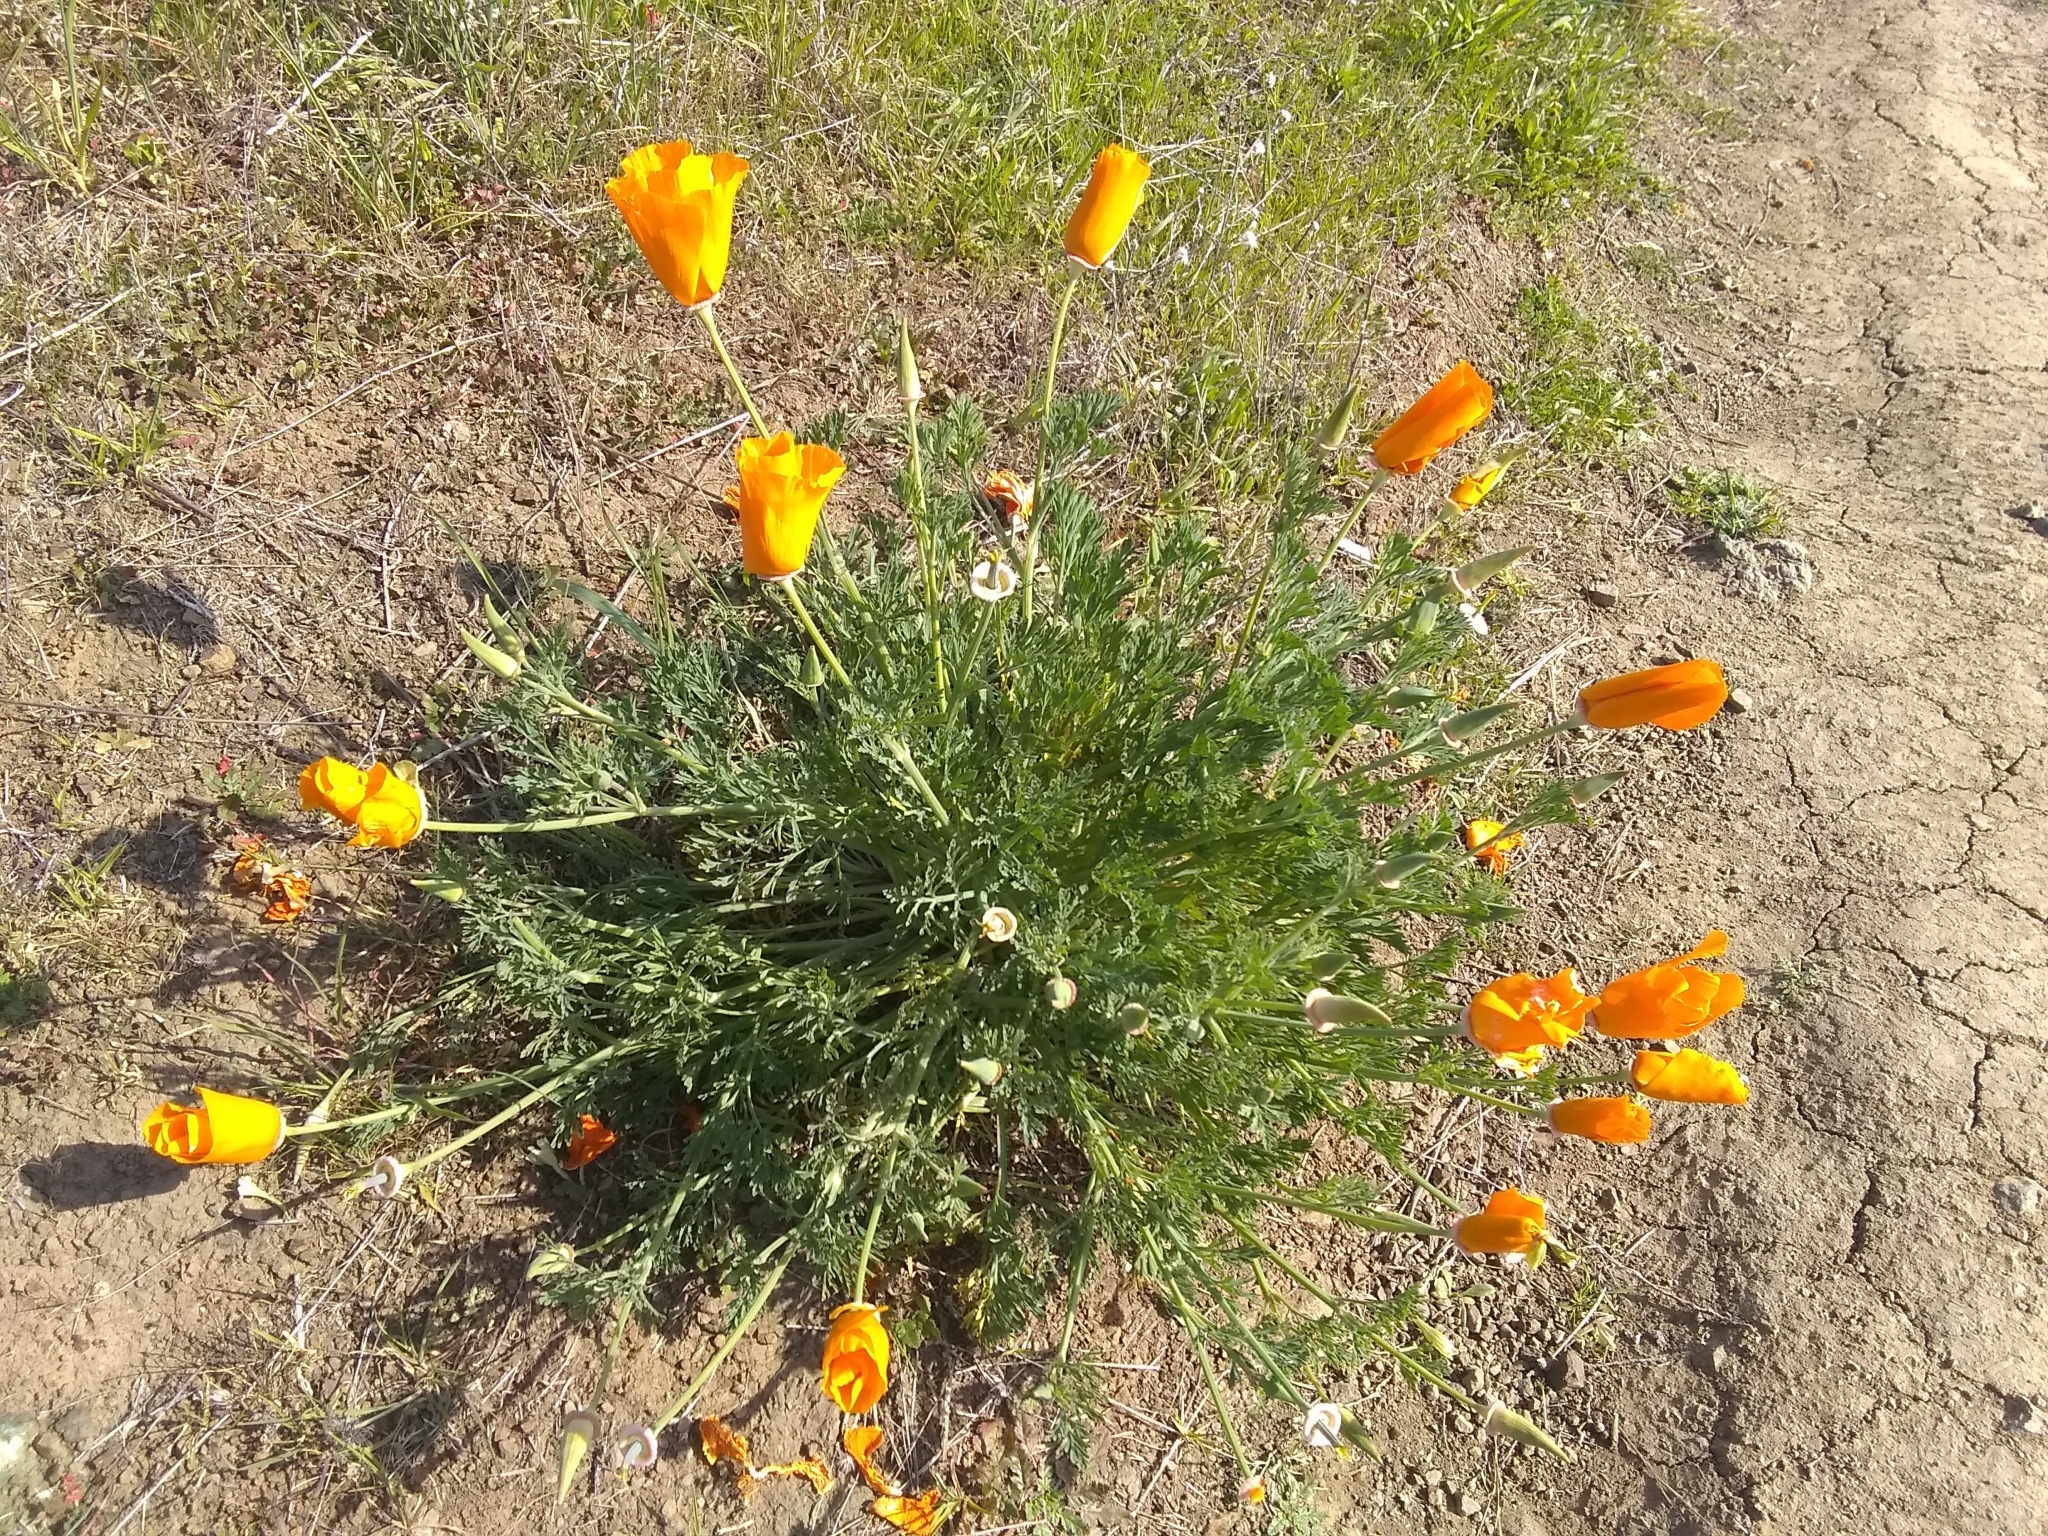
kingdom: Plantae
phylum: Tracheophyta
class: Magnoliopsida
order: Ranunculales
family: Papaveraceae
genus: Eschscholzia
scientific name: Eschscholzia californica
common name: California poppy
